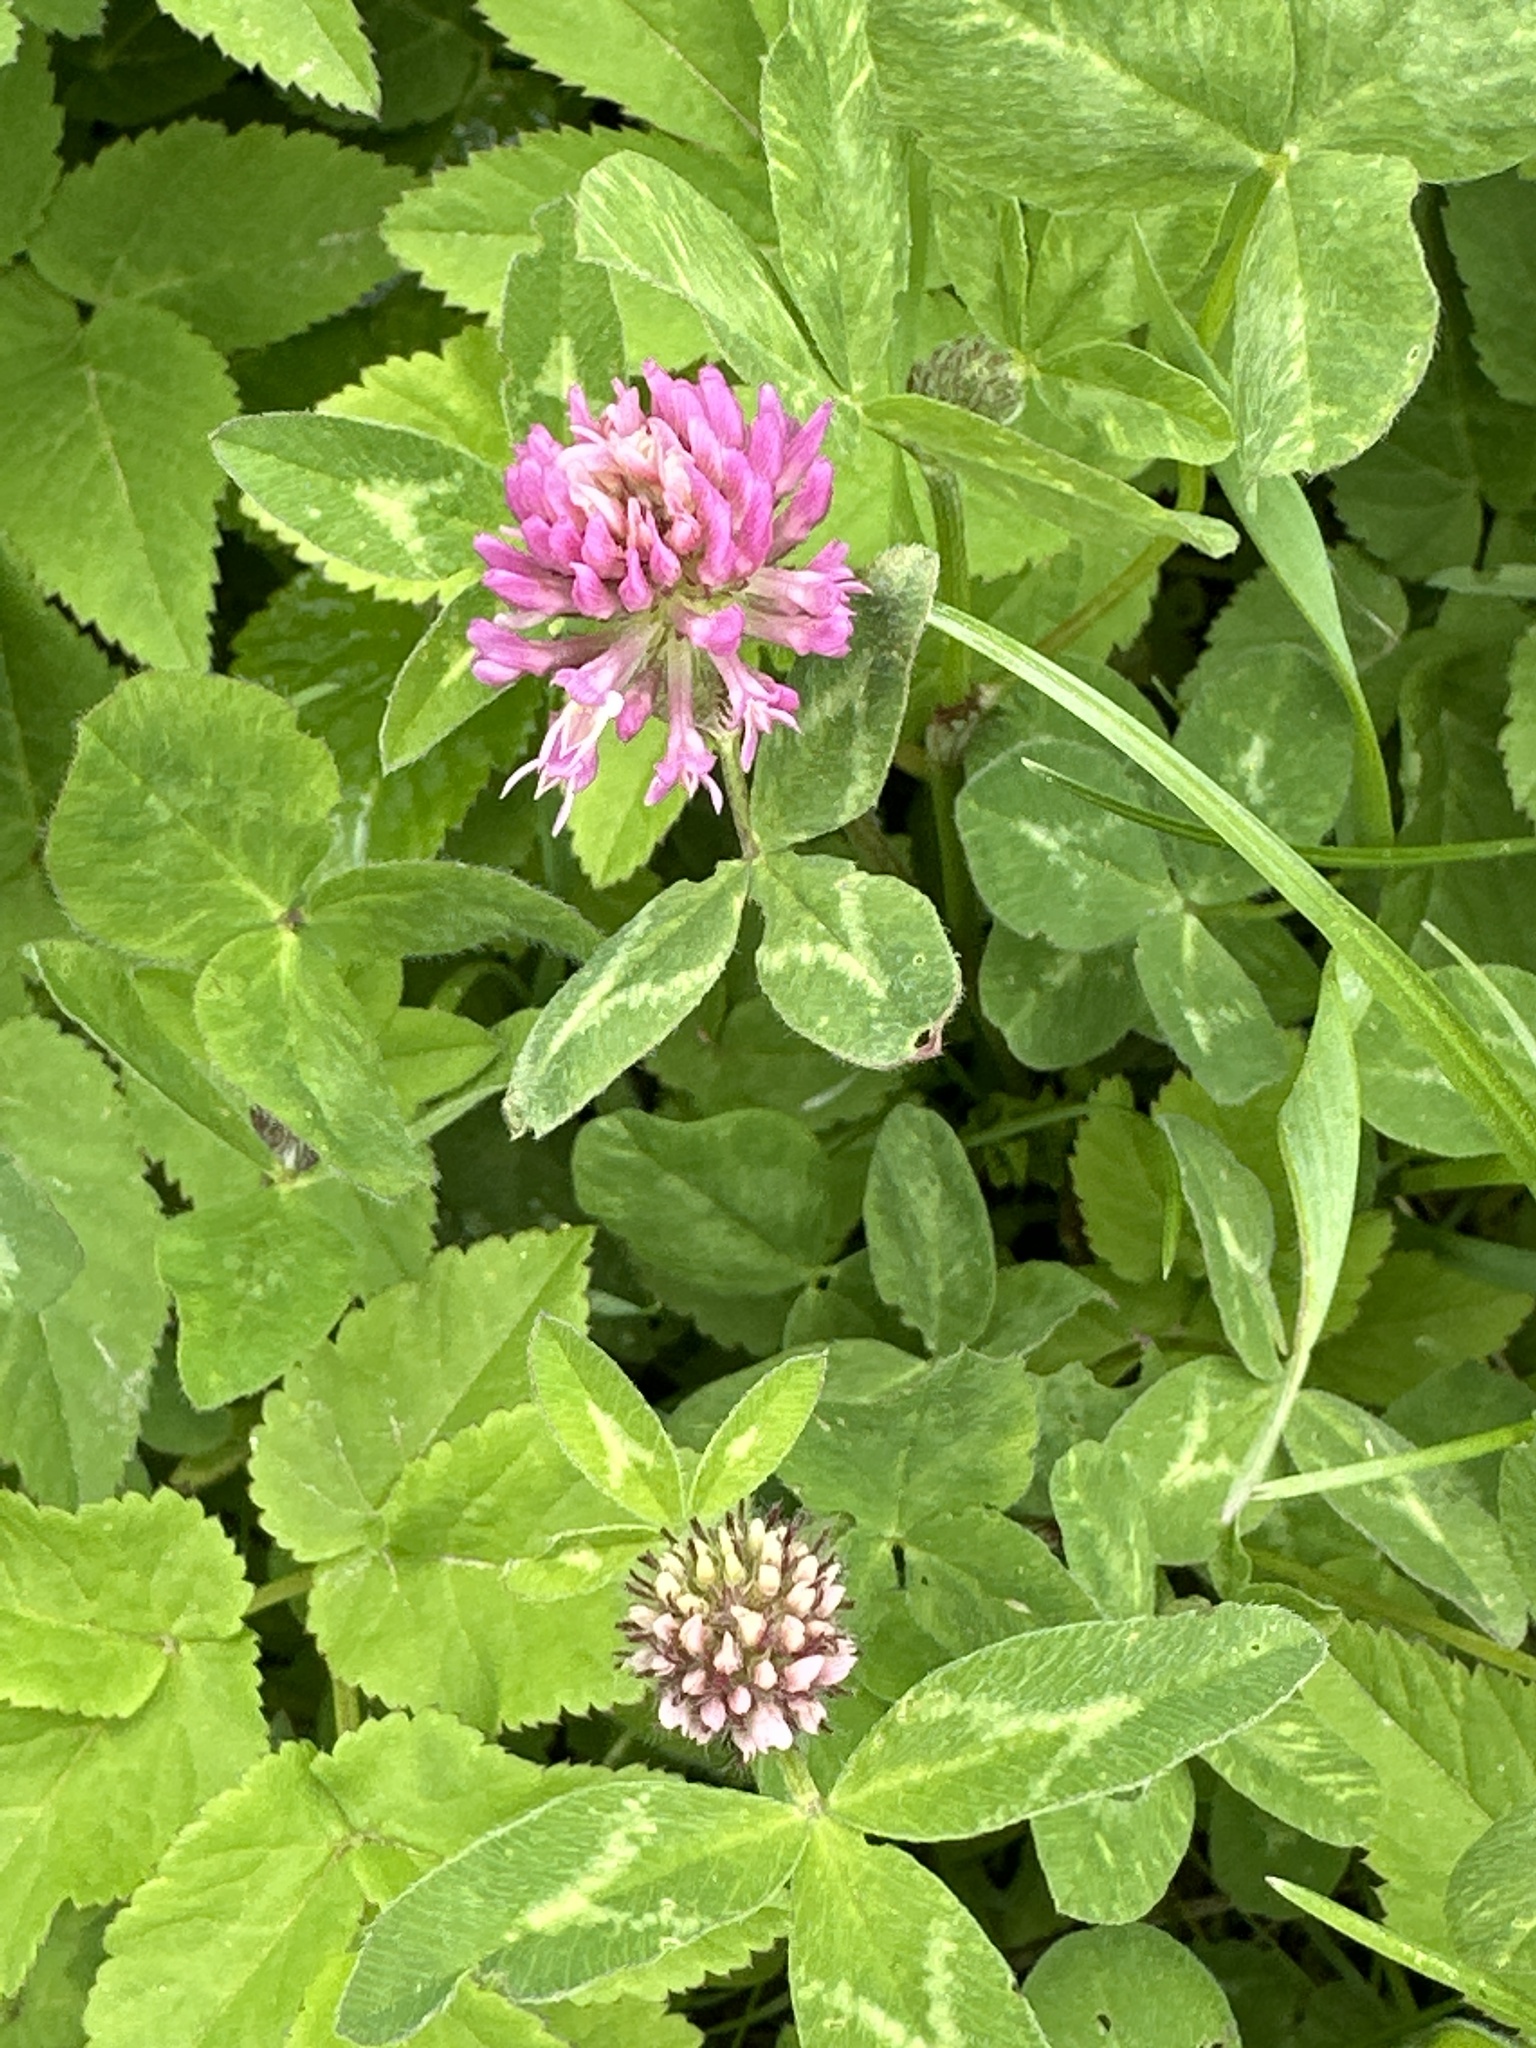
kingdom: Plantae
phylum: Tracheophyta
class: Magnoliopsida
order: Fabales
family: Fabaceae
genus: Trifolium
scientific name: Trifolium pratense
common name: Red clover
